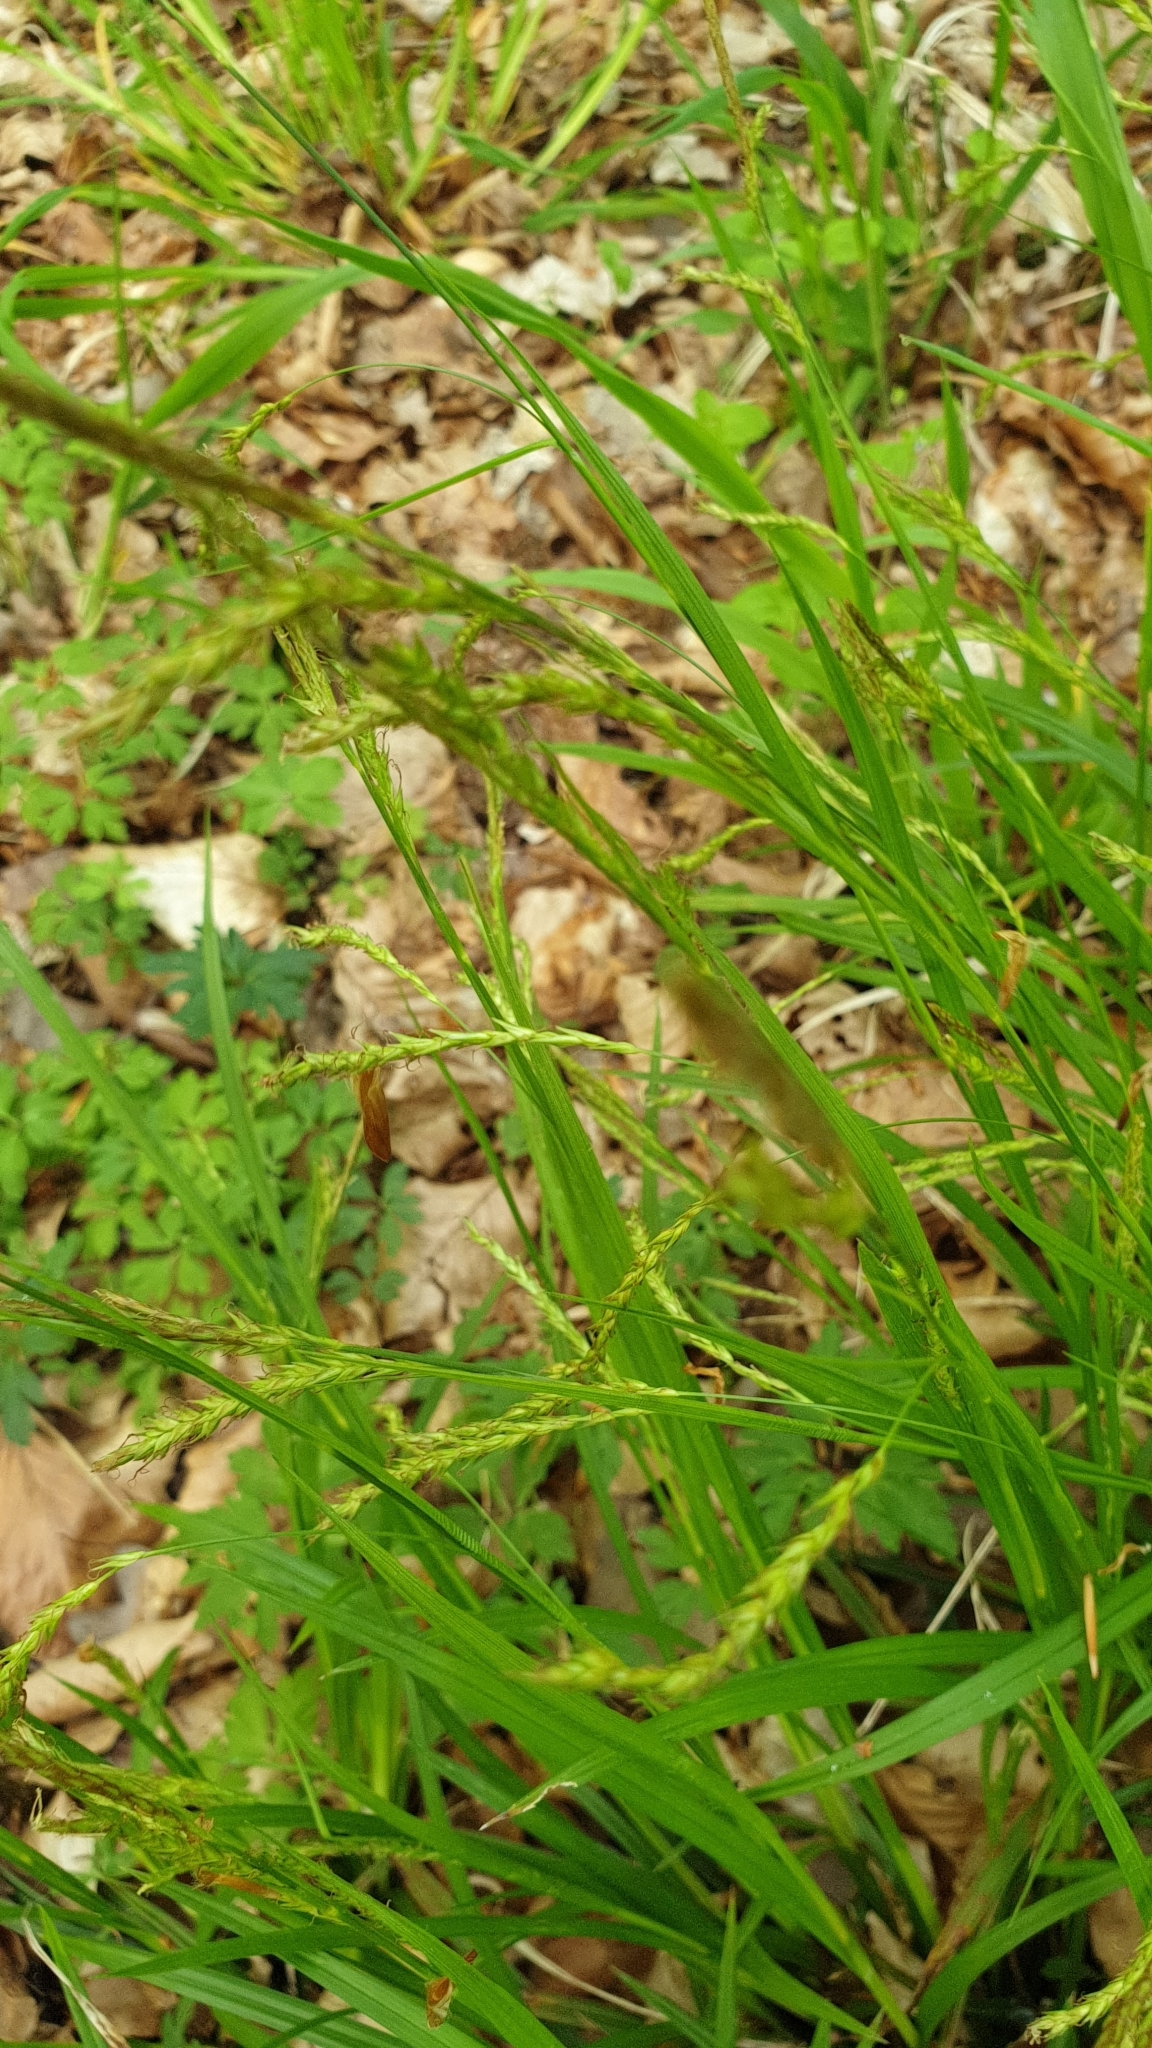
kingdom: Plantae
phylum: Tracheophyta
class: Liliopsida
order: Poales
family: Cyperaceae
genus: Carex
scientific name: Carex sylvatica
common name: Wood-sedge
